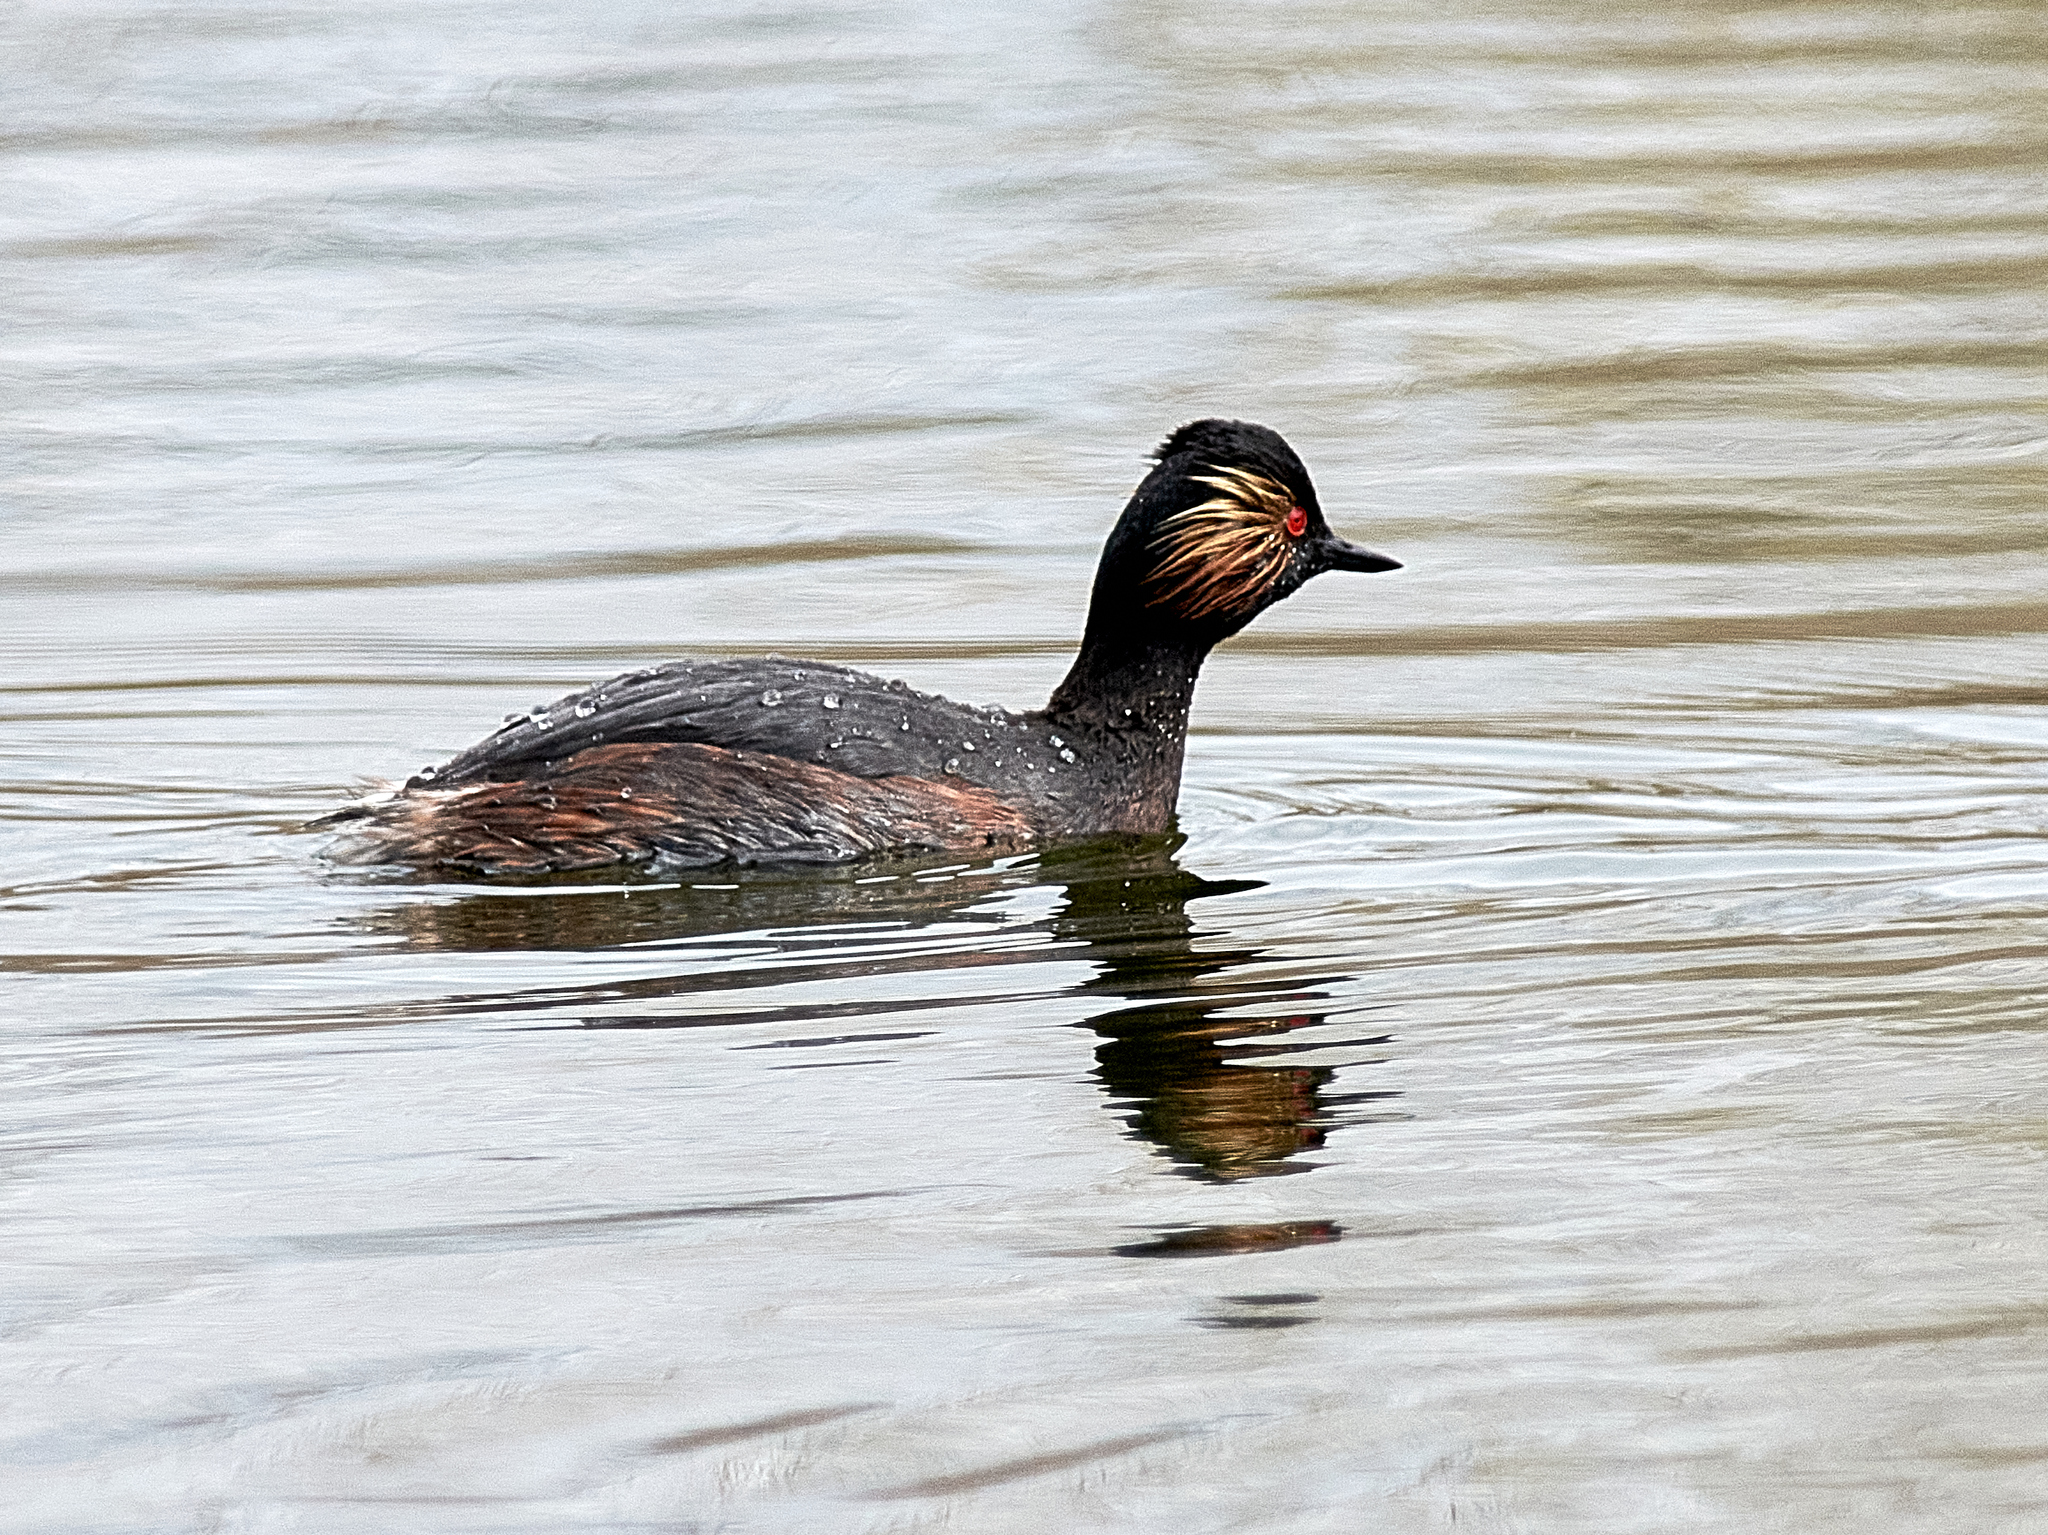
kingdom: Animalia
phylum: Chordata
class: Aves
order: Podicipediformes
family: Podicipedidae
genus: Podiceps
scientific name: Podiceps nigricollis
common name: Black-necked grebe
